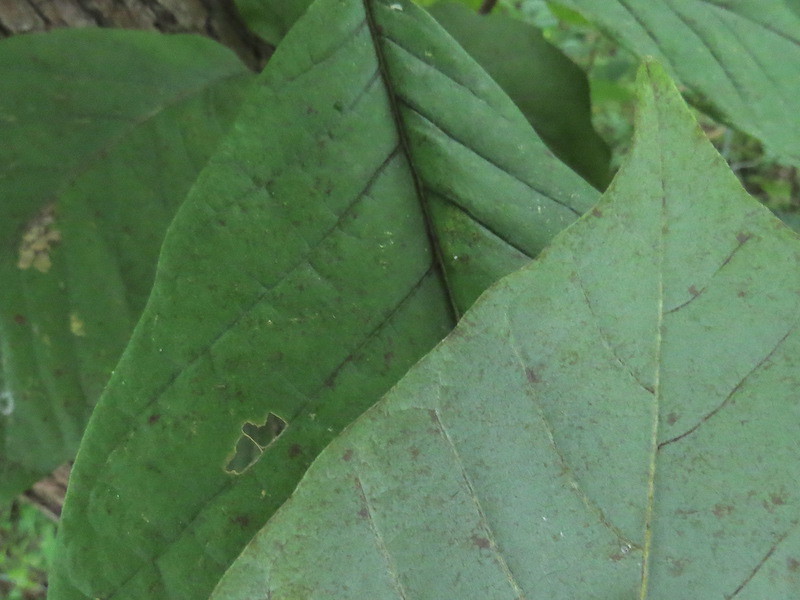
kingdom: Plantae
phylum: Tracheophyta
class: Magnoliopsida
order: Magnoliales
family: Magnoliaceae
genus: Magnolia
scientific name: Magnolia acuminata
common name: Cucumber magnolia
